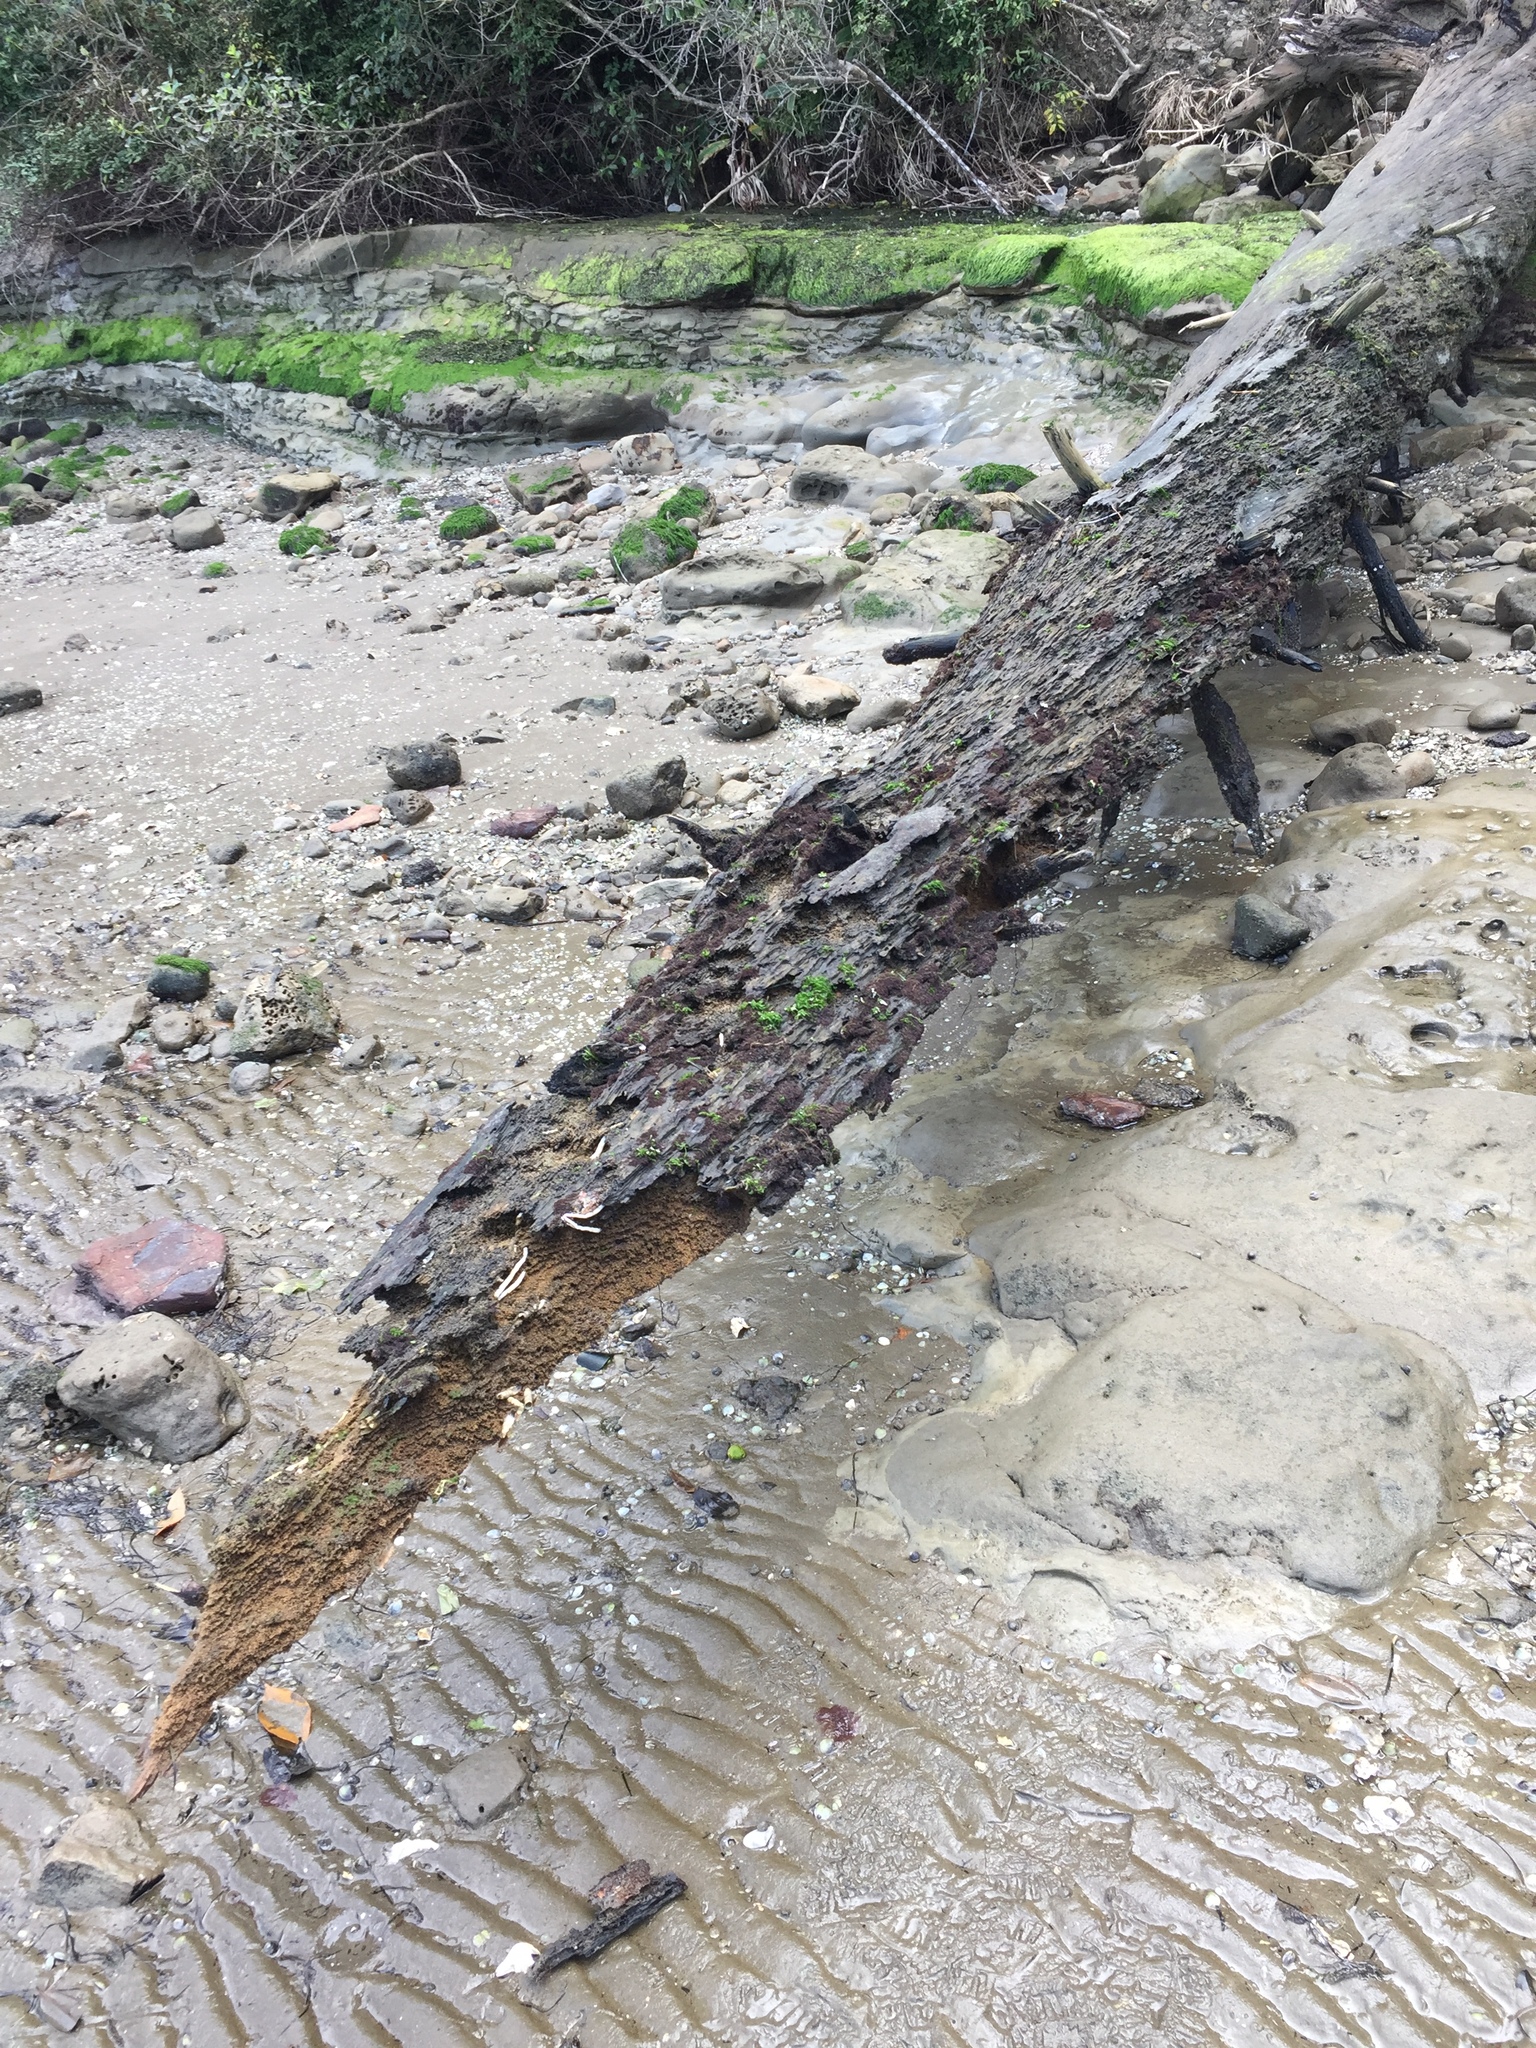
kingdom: Animalia
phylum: Mollusca
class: Gastropoda
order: Littorinimorpha
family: Littorinidae
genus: Risellopsis
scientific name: Risellopsis varia
